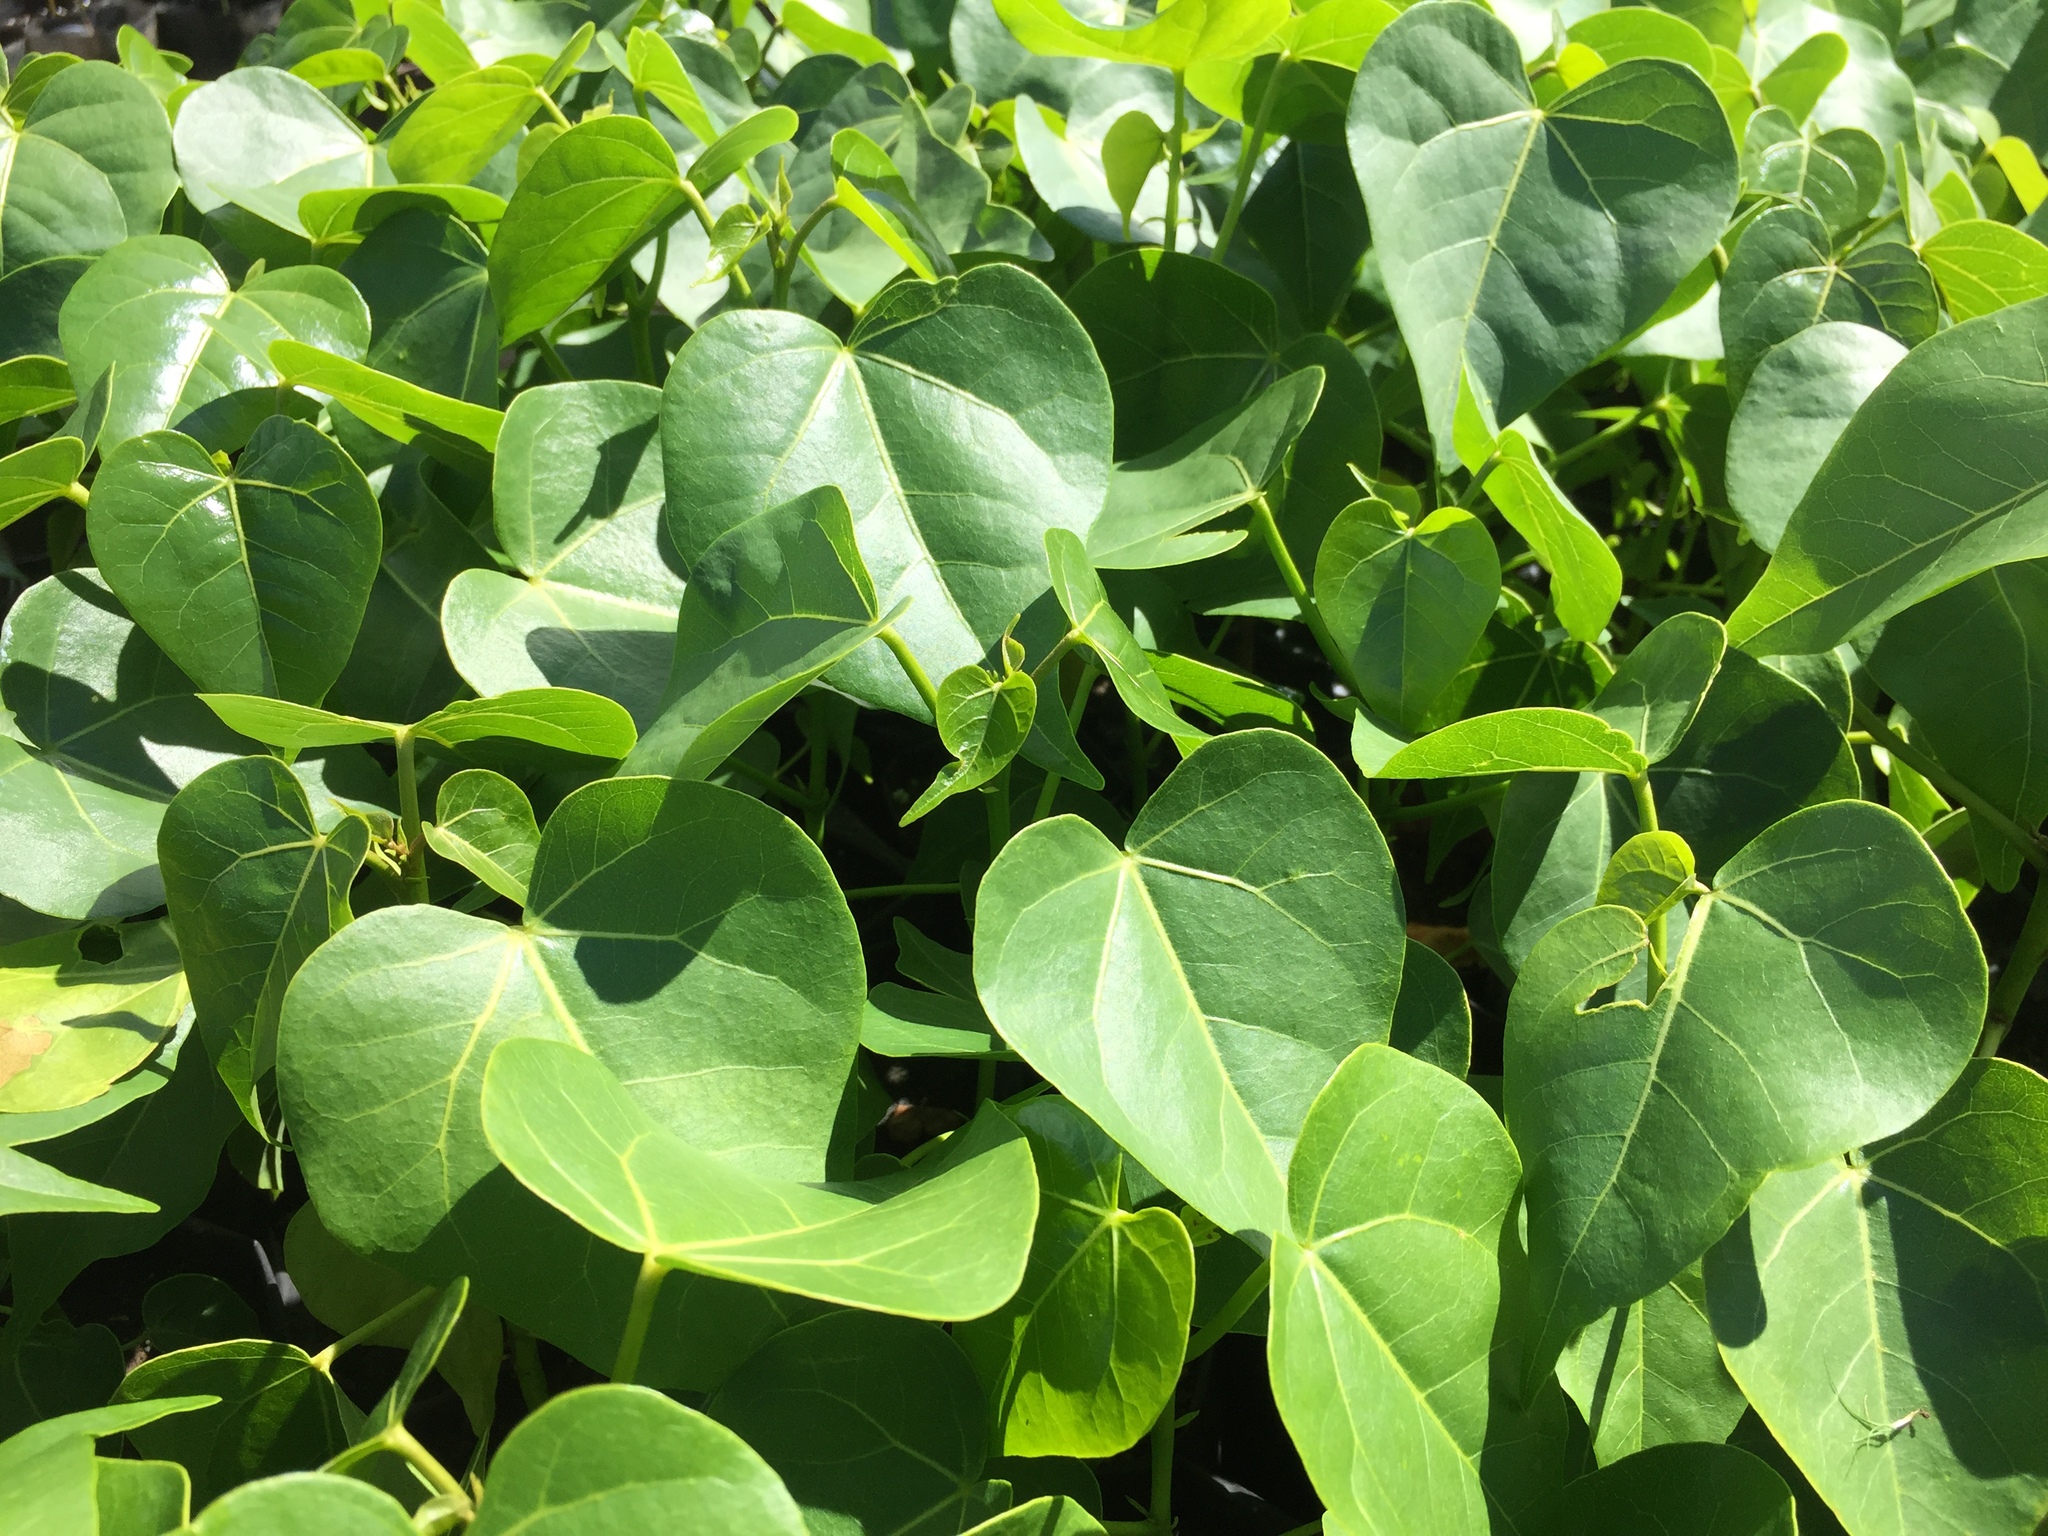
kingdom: Plantae
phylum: Tracheophyta
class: Magnoliopsida
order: Malvales
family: Malvaceae
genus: Thespesia
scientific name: Thespesia populnea
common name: Seaside mahoe
